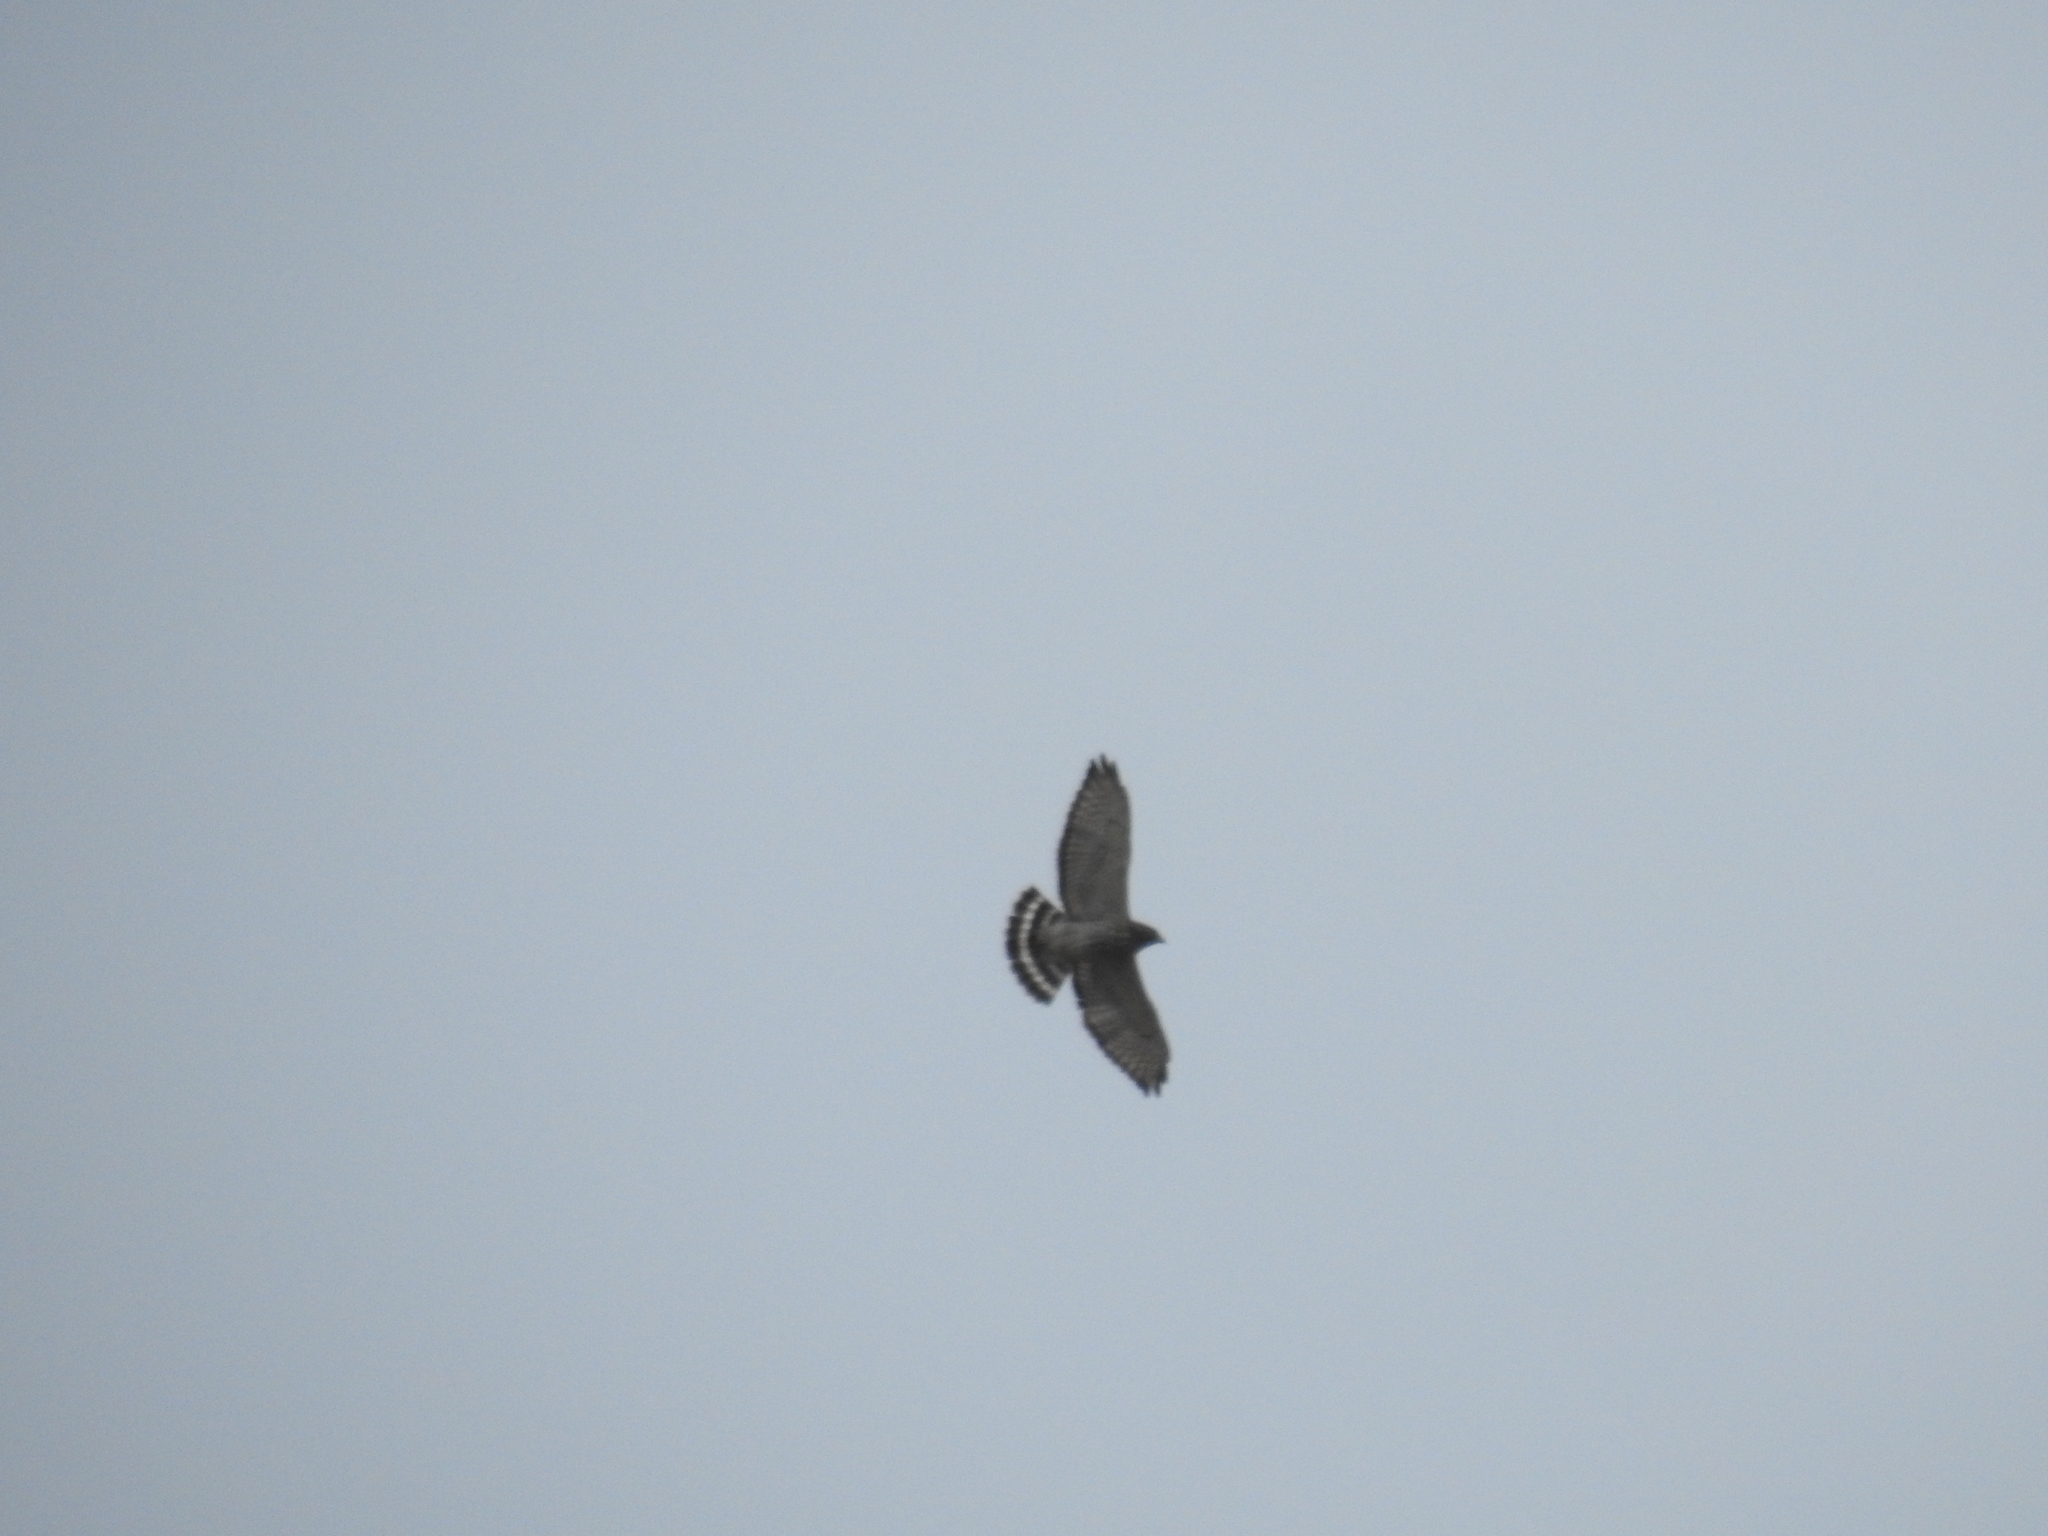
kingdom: Animalia
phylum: Chordata
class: Aves
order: Accipitriformes
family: Accipitridae
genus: Buteo
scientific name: Buteo platypterus
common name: Broad-winged hawk
